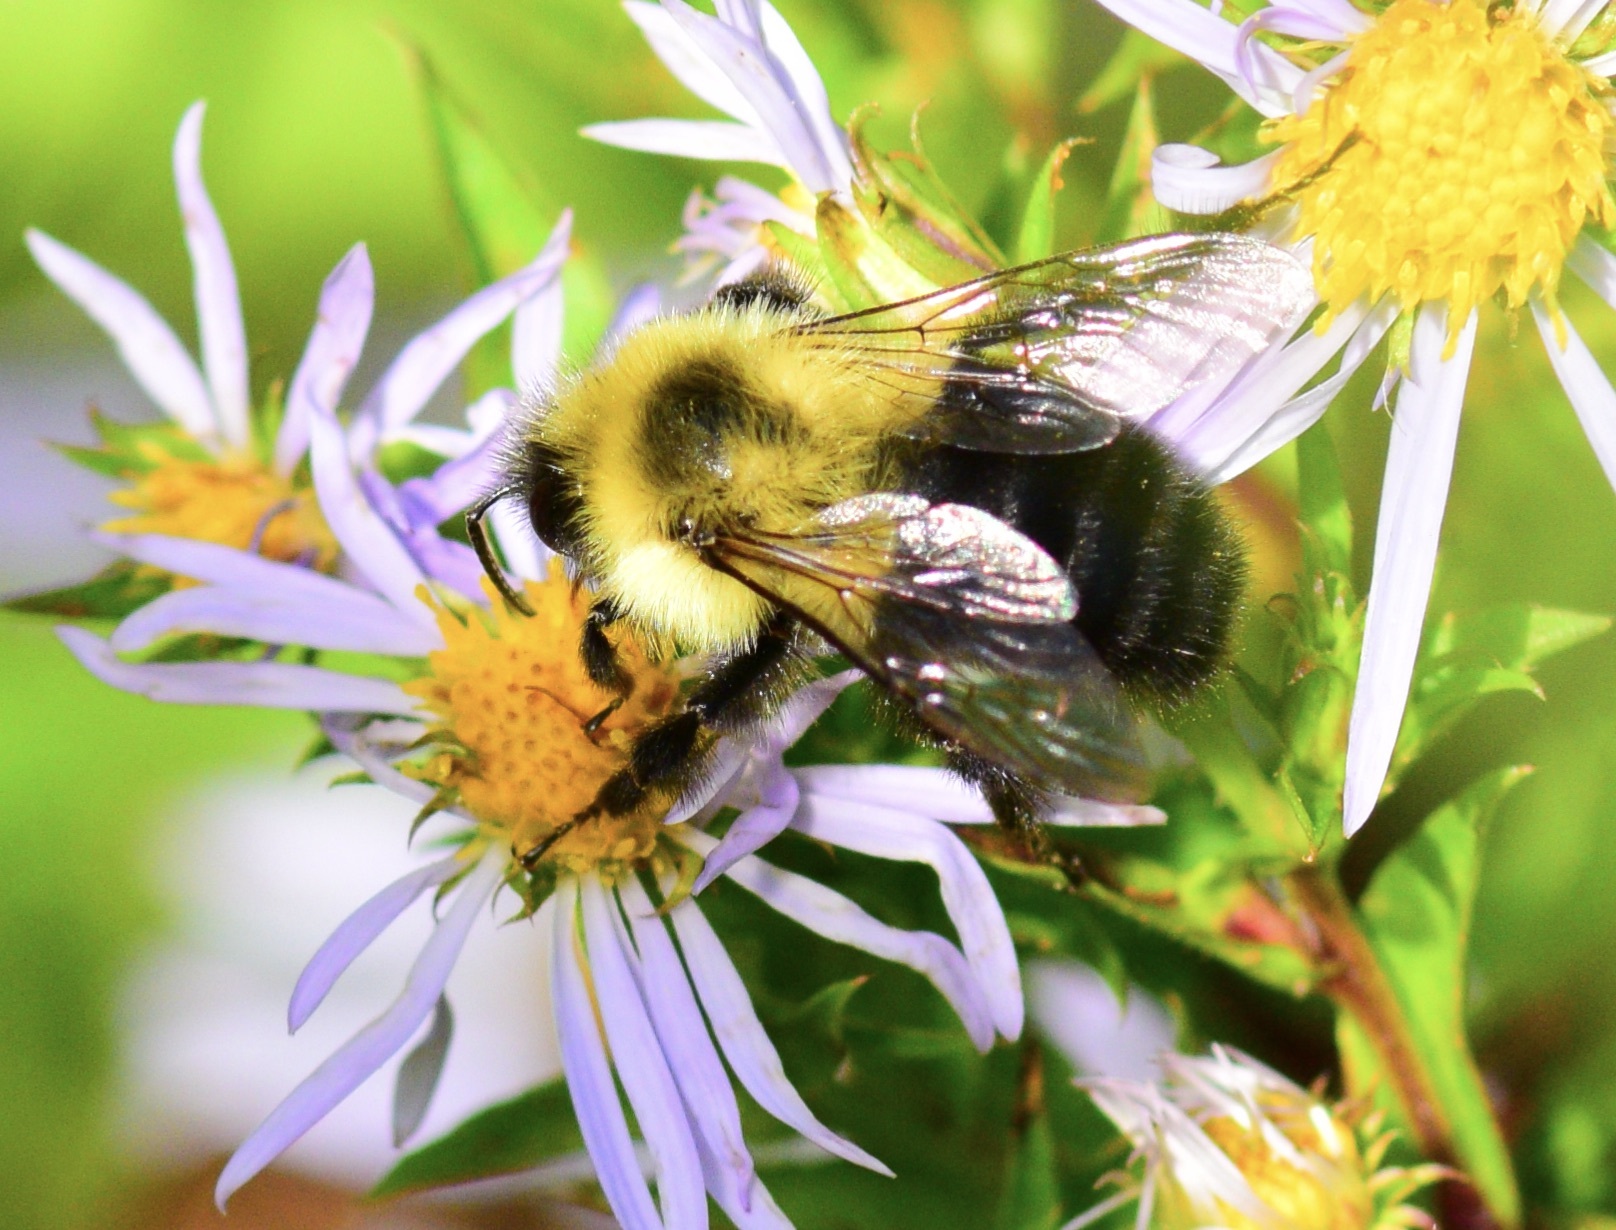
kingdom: Animalia
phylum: Arthropoda
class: Insecta
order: Hymenoptera
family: Apidae
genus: Bombus
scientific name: Bombus impatiens
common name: Common eastern bumble bee
